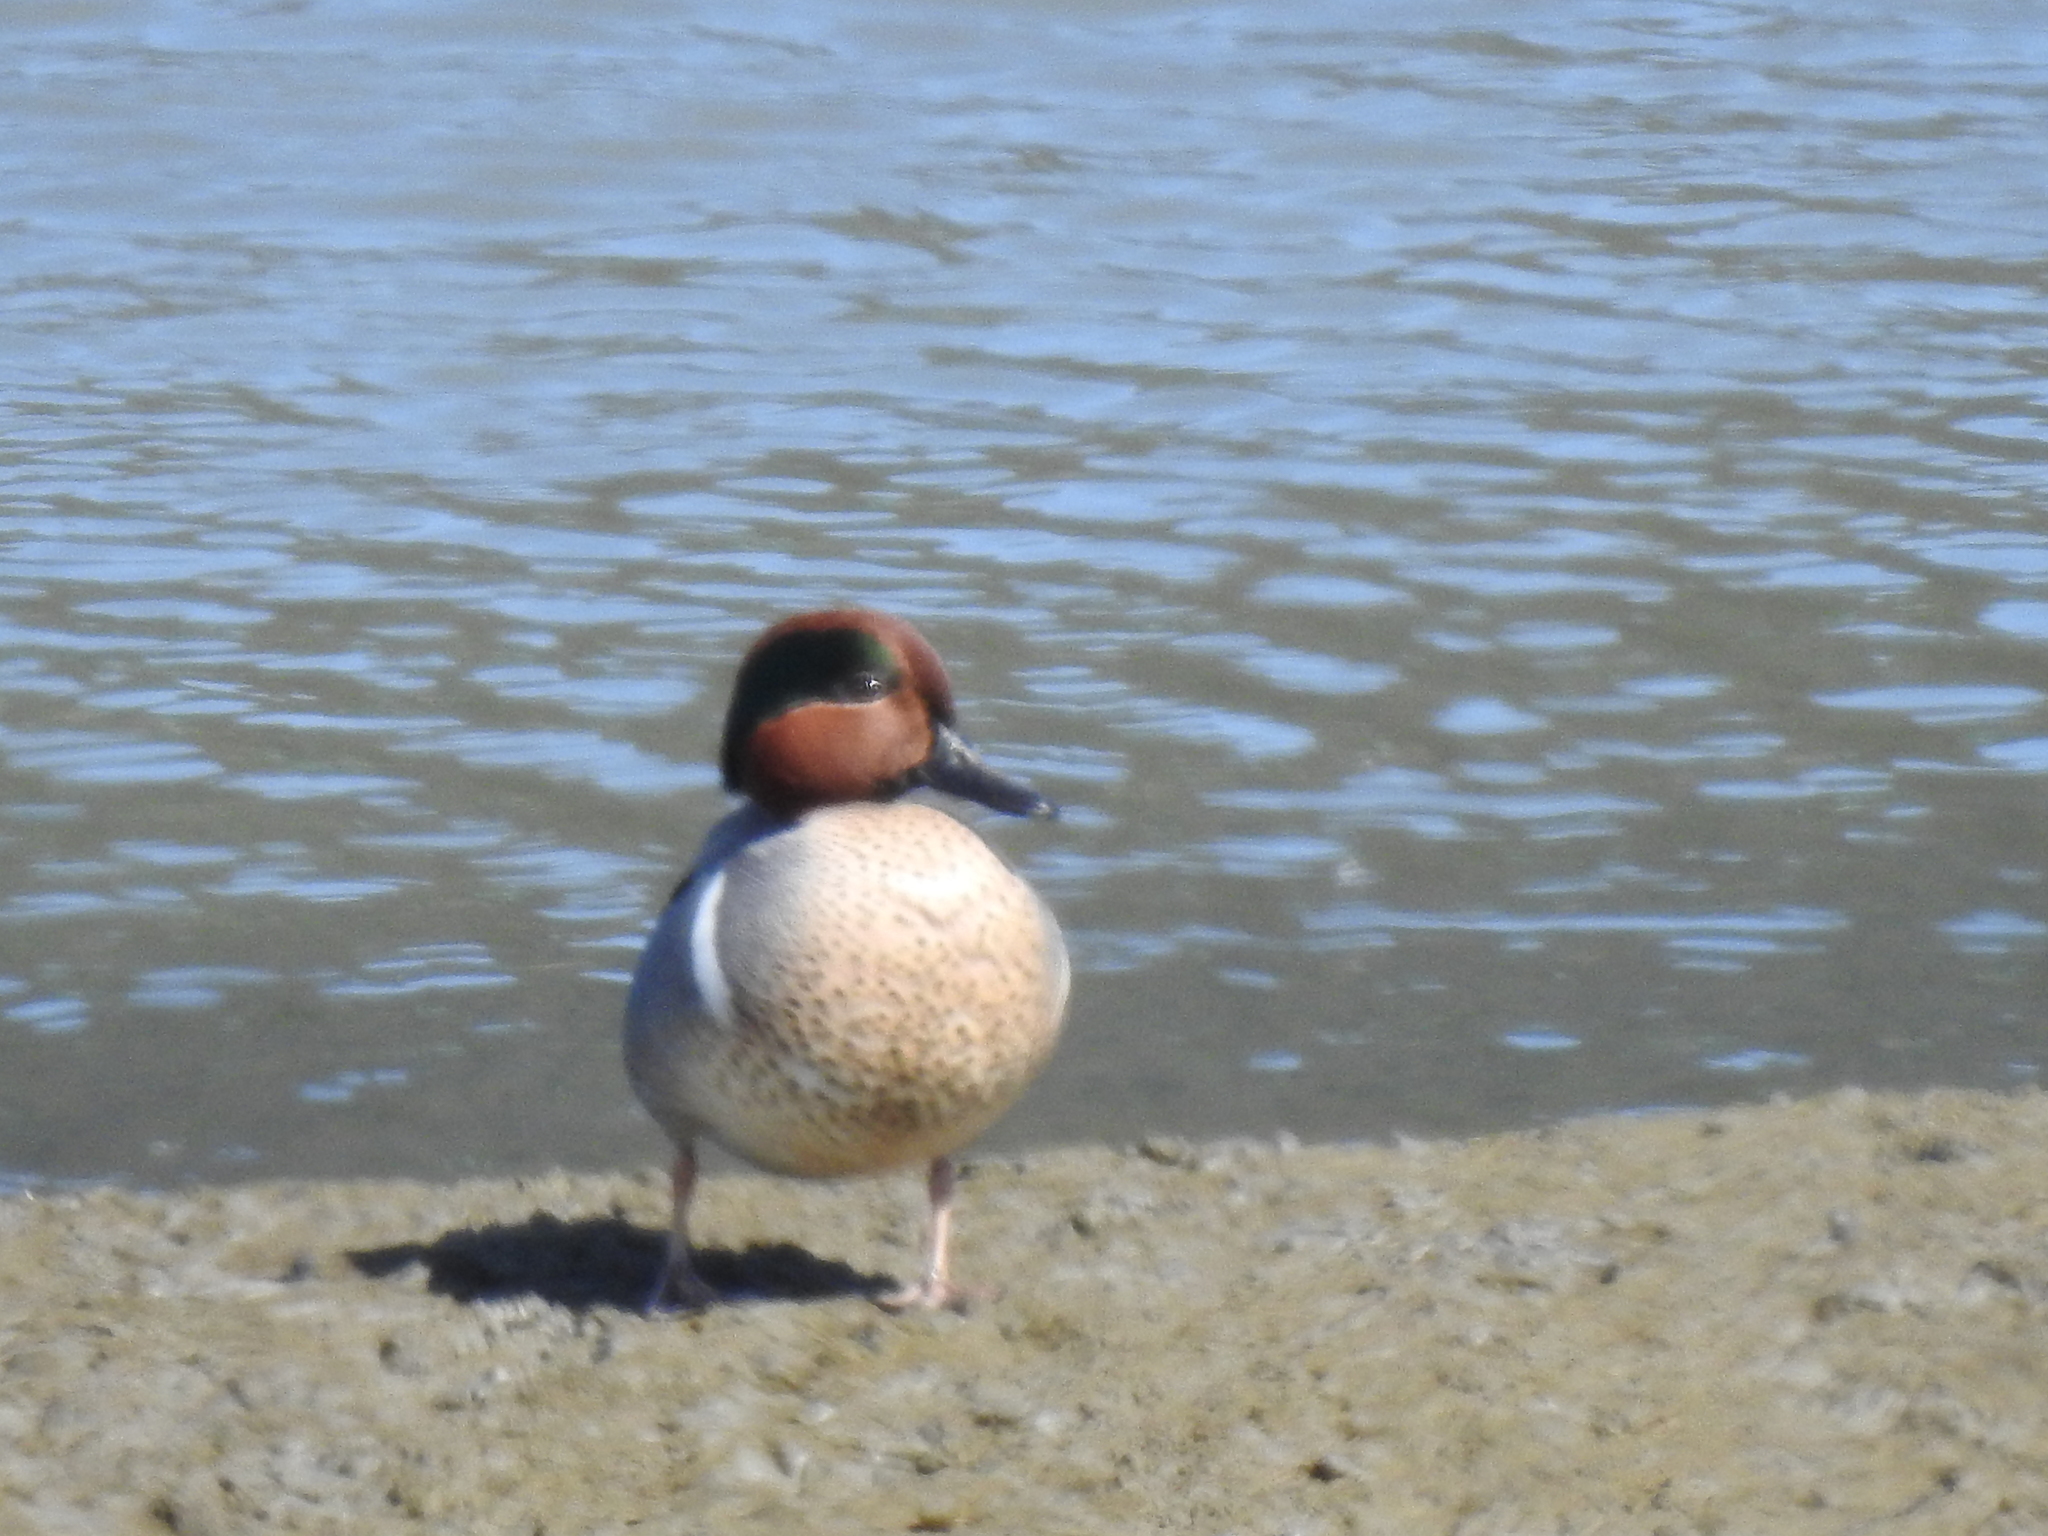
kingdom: Animalia
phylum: Chordata
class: Aves
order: Anseriformes
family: Anatidae
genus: Anas
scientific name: Anas crecca
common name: Eurasian teal
